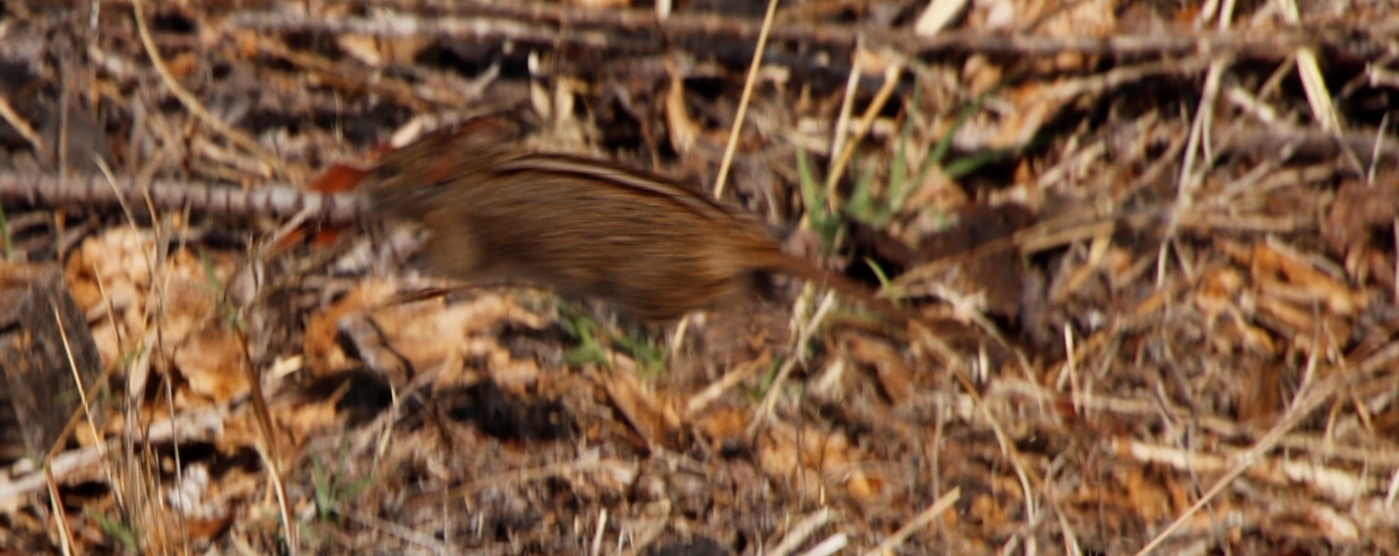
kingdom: Animalia
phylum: Chordata
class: Mammalia
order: Rodentia
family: Muridae
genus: Rhabdomys
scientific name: Rhabdomys pumilio
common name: Xeric four-striped grass rat
